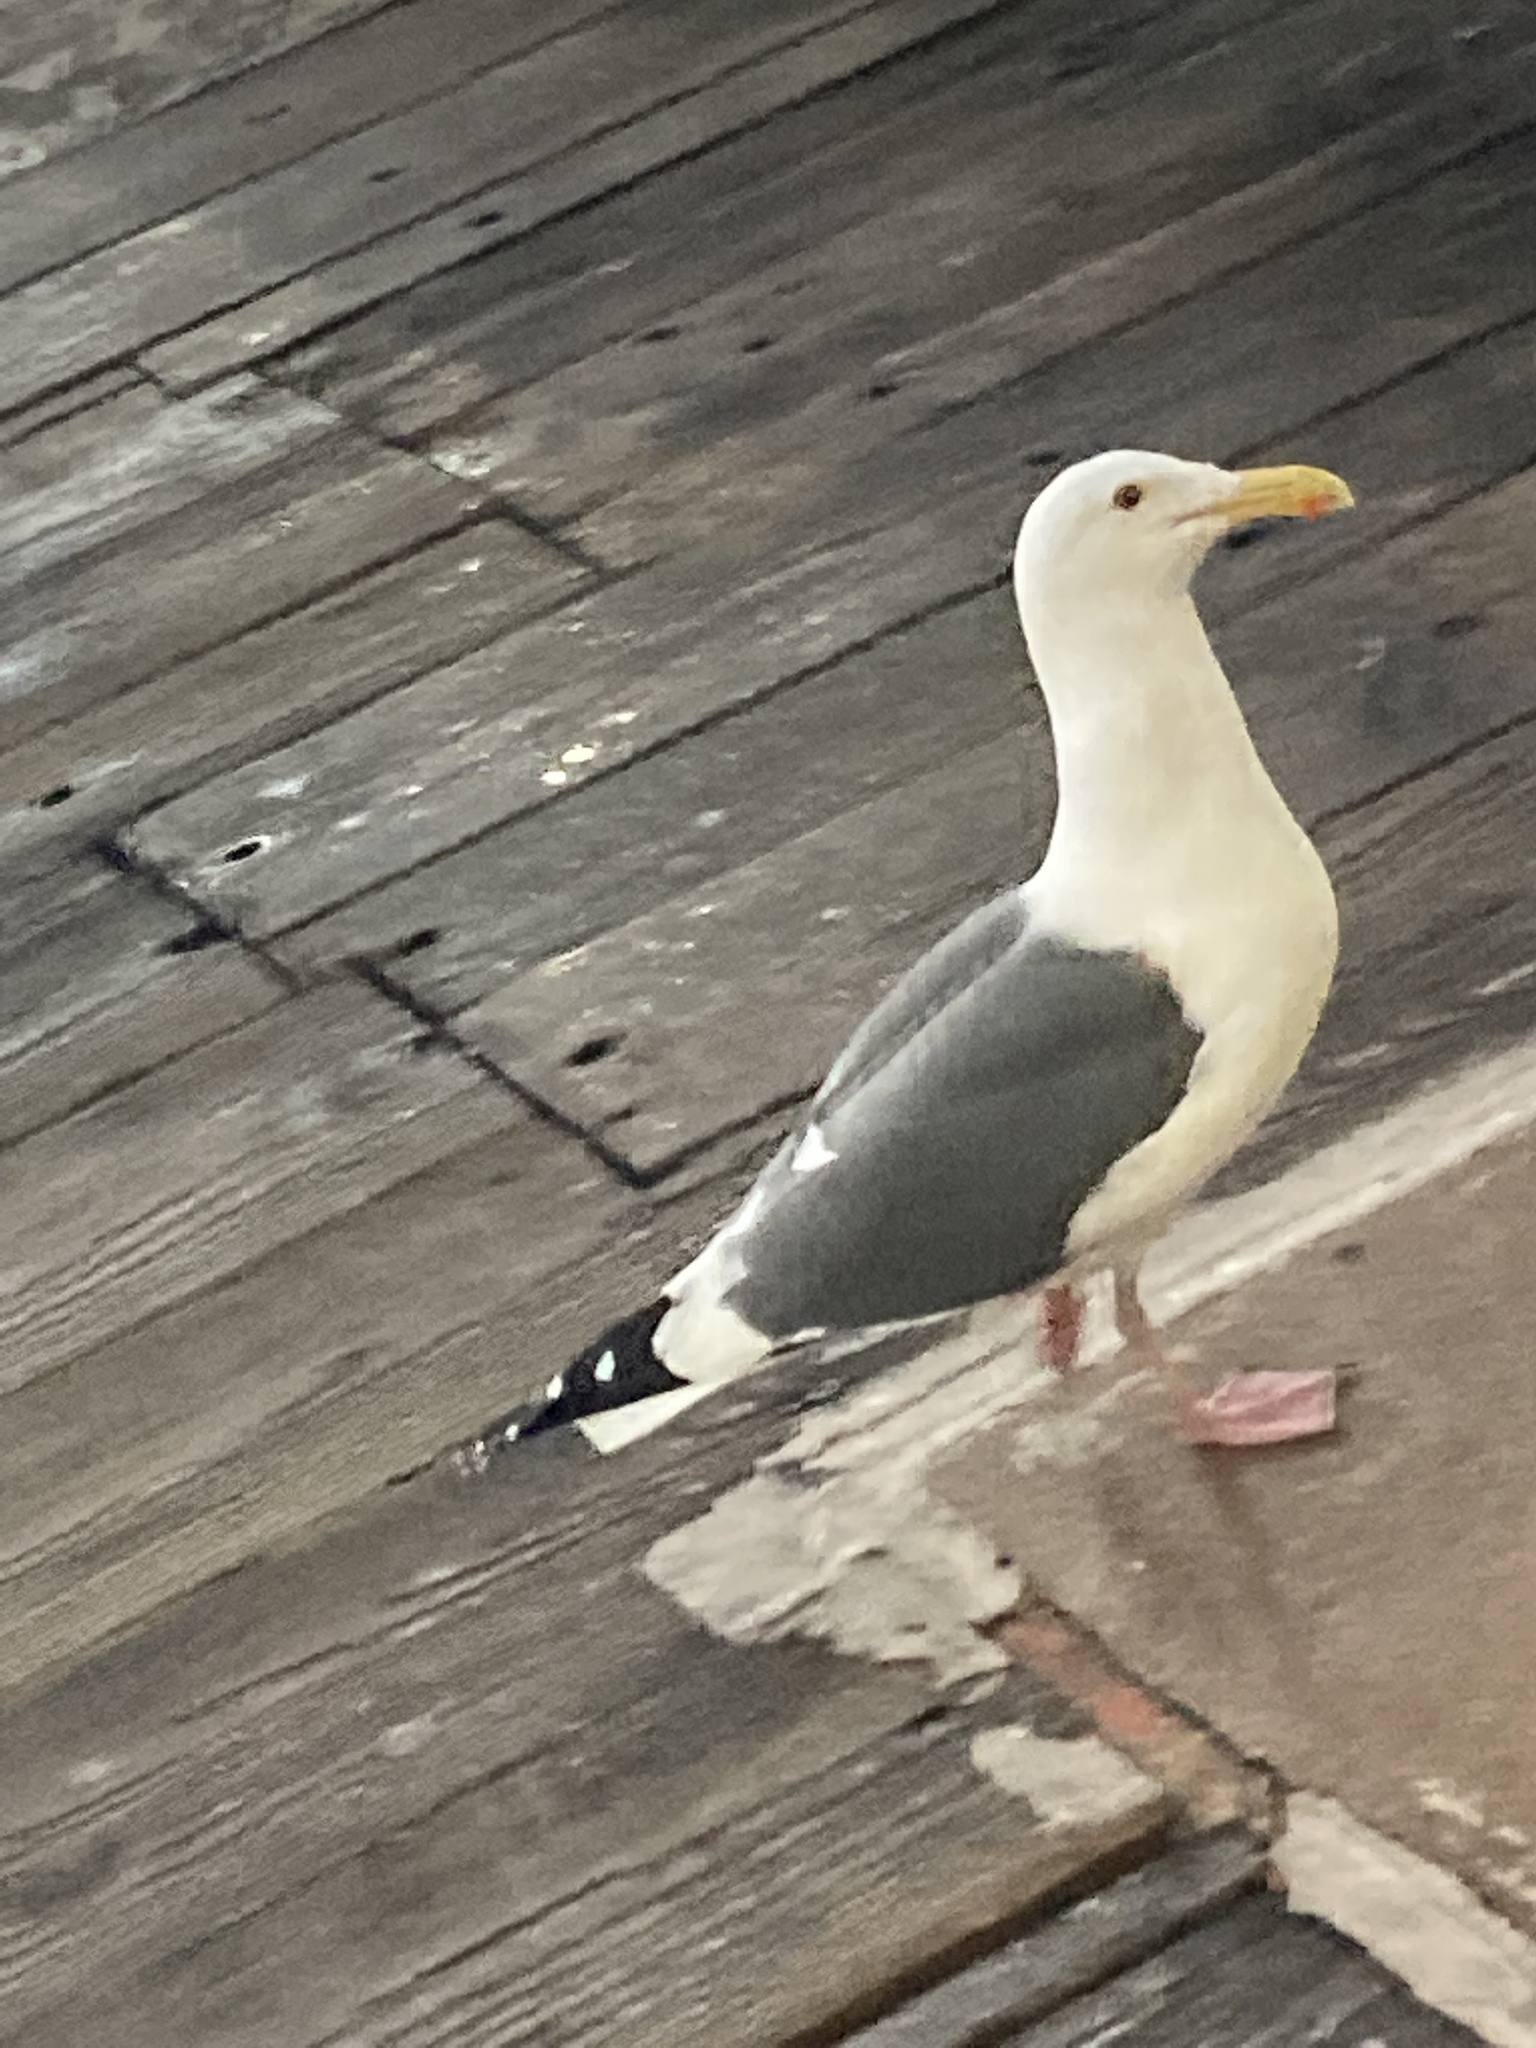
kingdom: Animalia
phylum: Chordata
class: Aves
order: Charadriiformes
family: Laridae
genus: Larus
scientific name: Larus occidentalis
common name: Western gull
